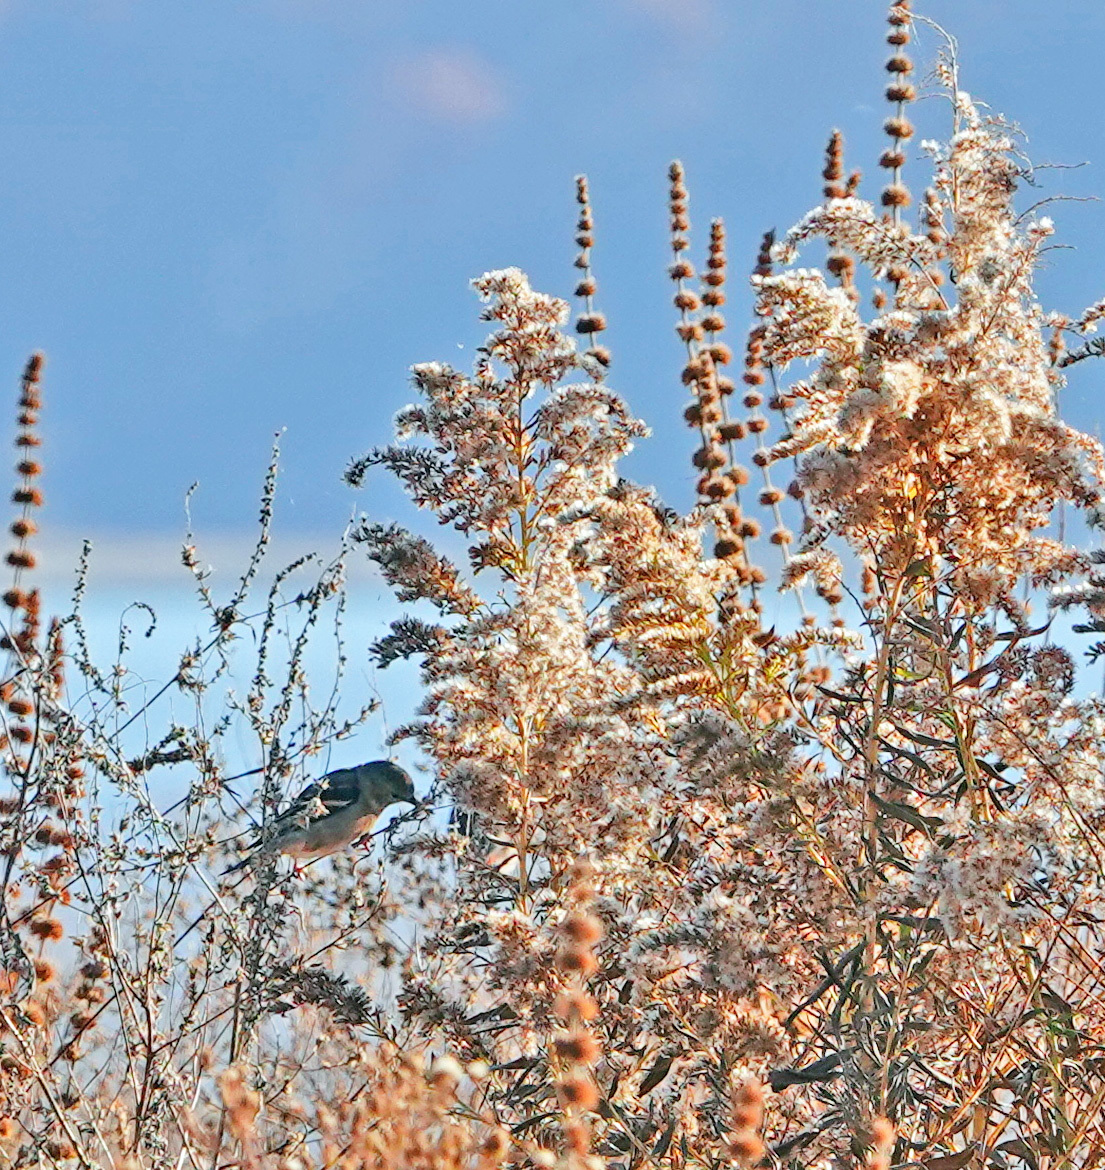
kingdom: Animalia
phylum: Chordata
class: Aves
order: Passeriformes
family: Fringillidae
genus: Spinus
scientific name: Spinus tristis
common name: American goldfinch
